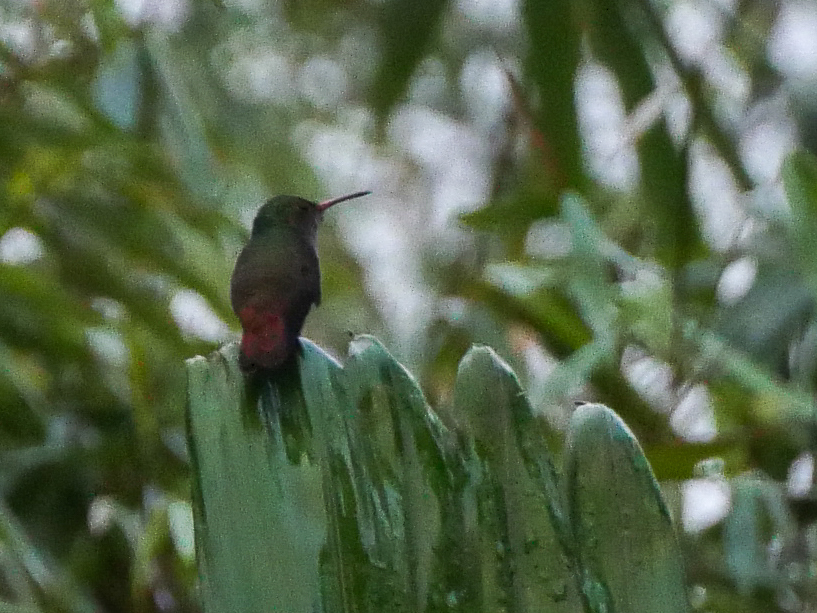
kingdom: Animalia
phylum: Chordata
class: Aves
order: Apodiformes
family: Trochilidae
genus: Amazilia
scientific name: Amazilia tzacatl
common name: Rufous-tailed hummingbird
